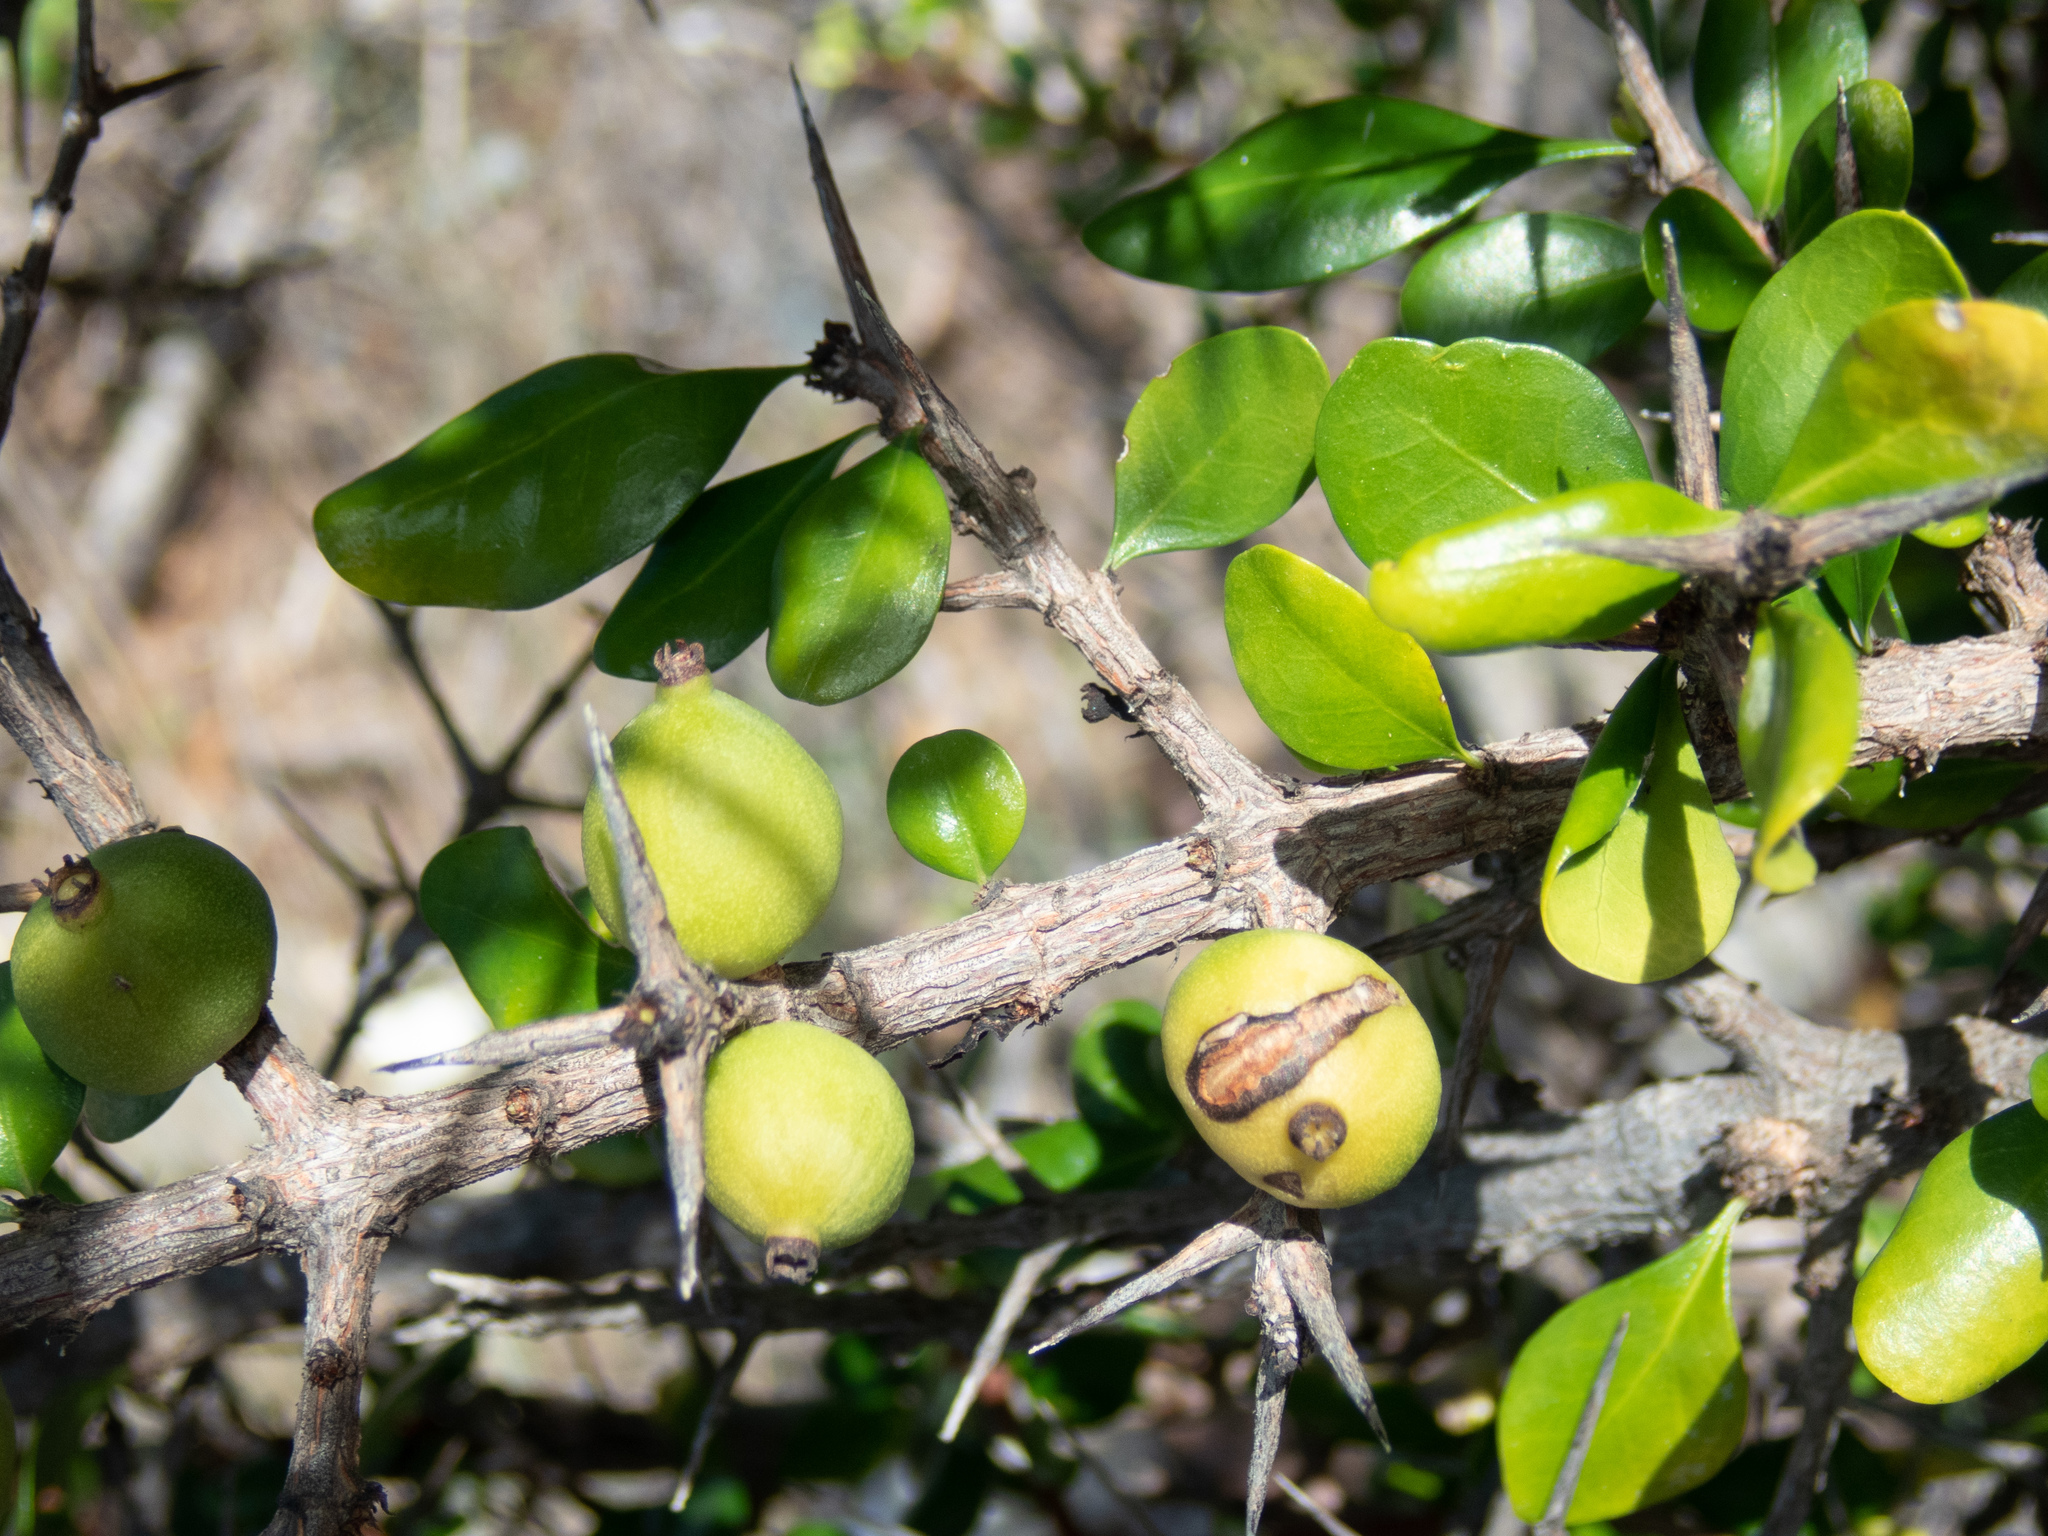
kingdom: Plantae
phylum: Tracheophyta
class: Magnoliopsida
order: Gentianales
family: Rubiaceae
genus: Randia
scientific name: Randia aculeata
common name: Inkberry
